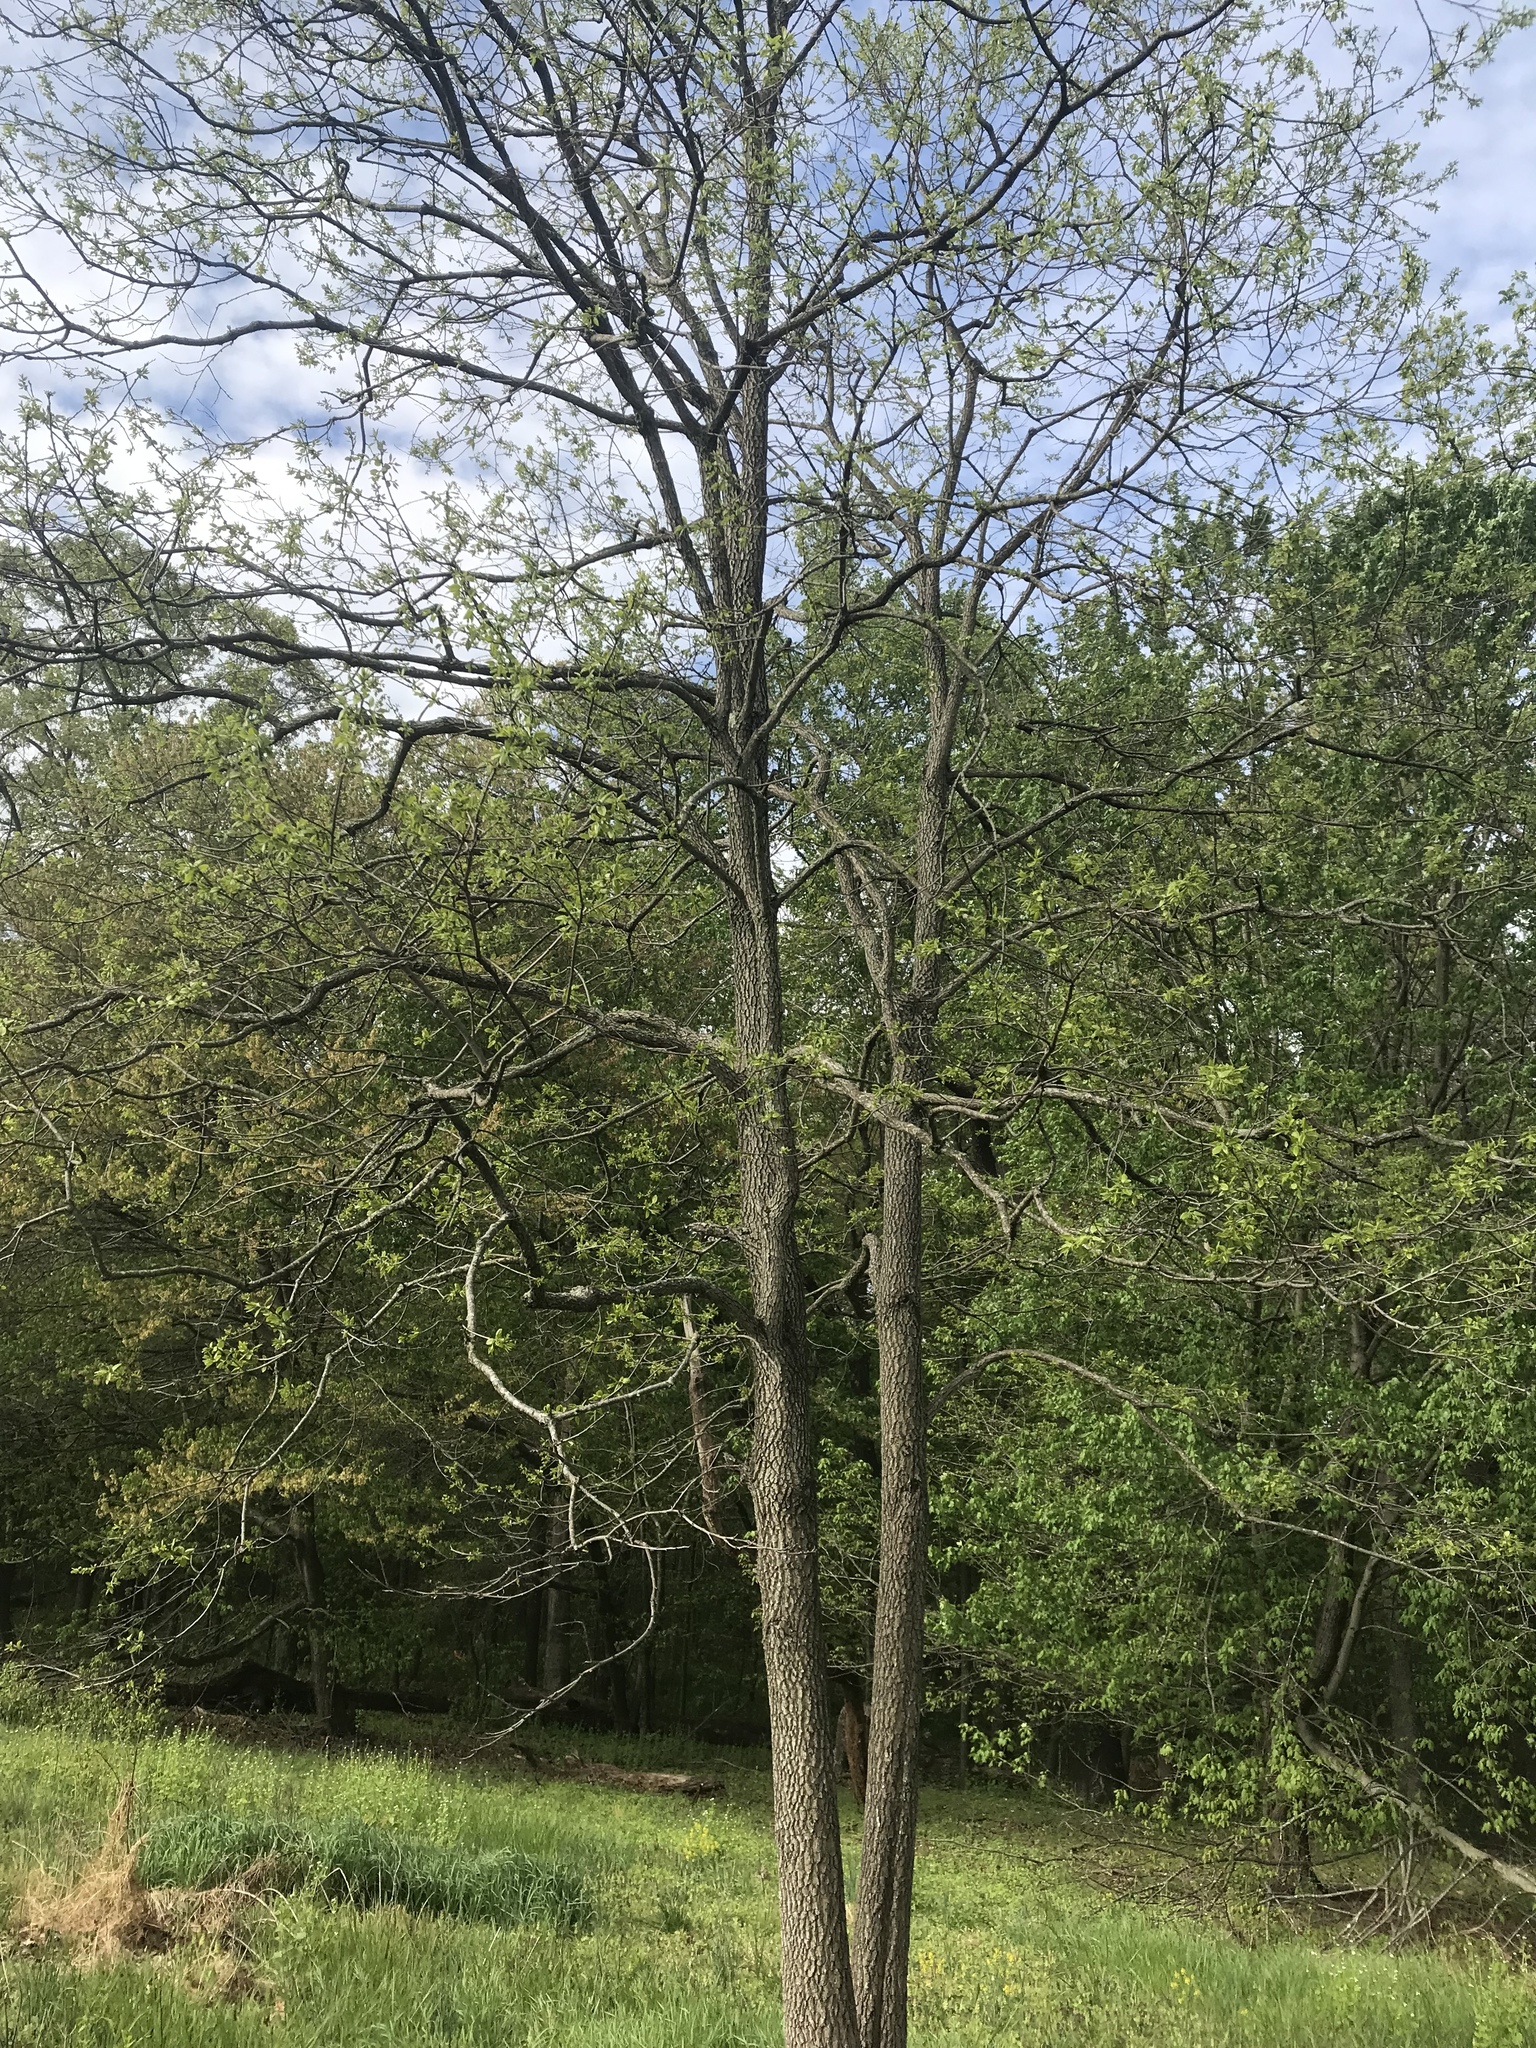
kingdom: Plantae
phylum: Tracheophyta
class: Magnoliopsida
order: Ericales
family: Ebenaceae
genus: Diospyros
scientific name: Diospyros virginiana
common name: Persimmon
